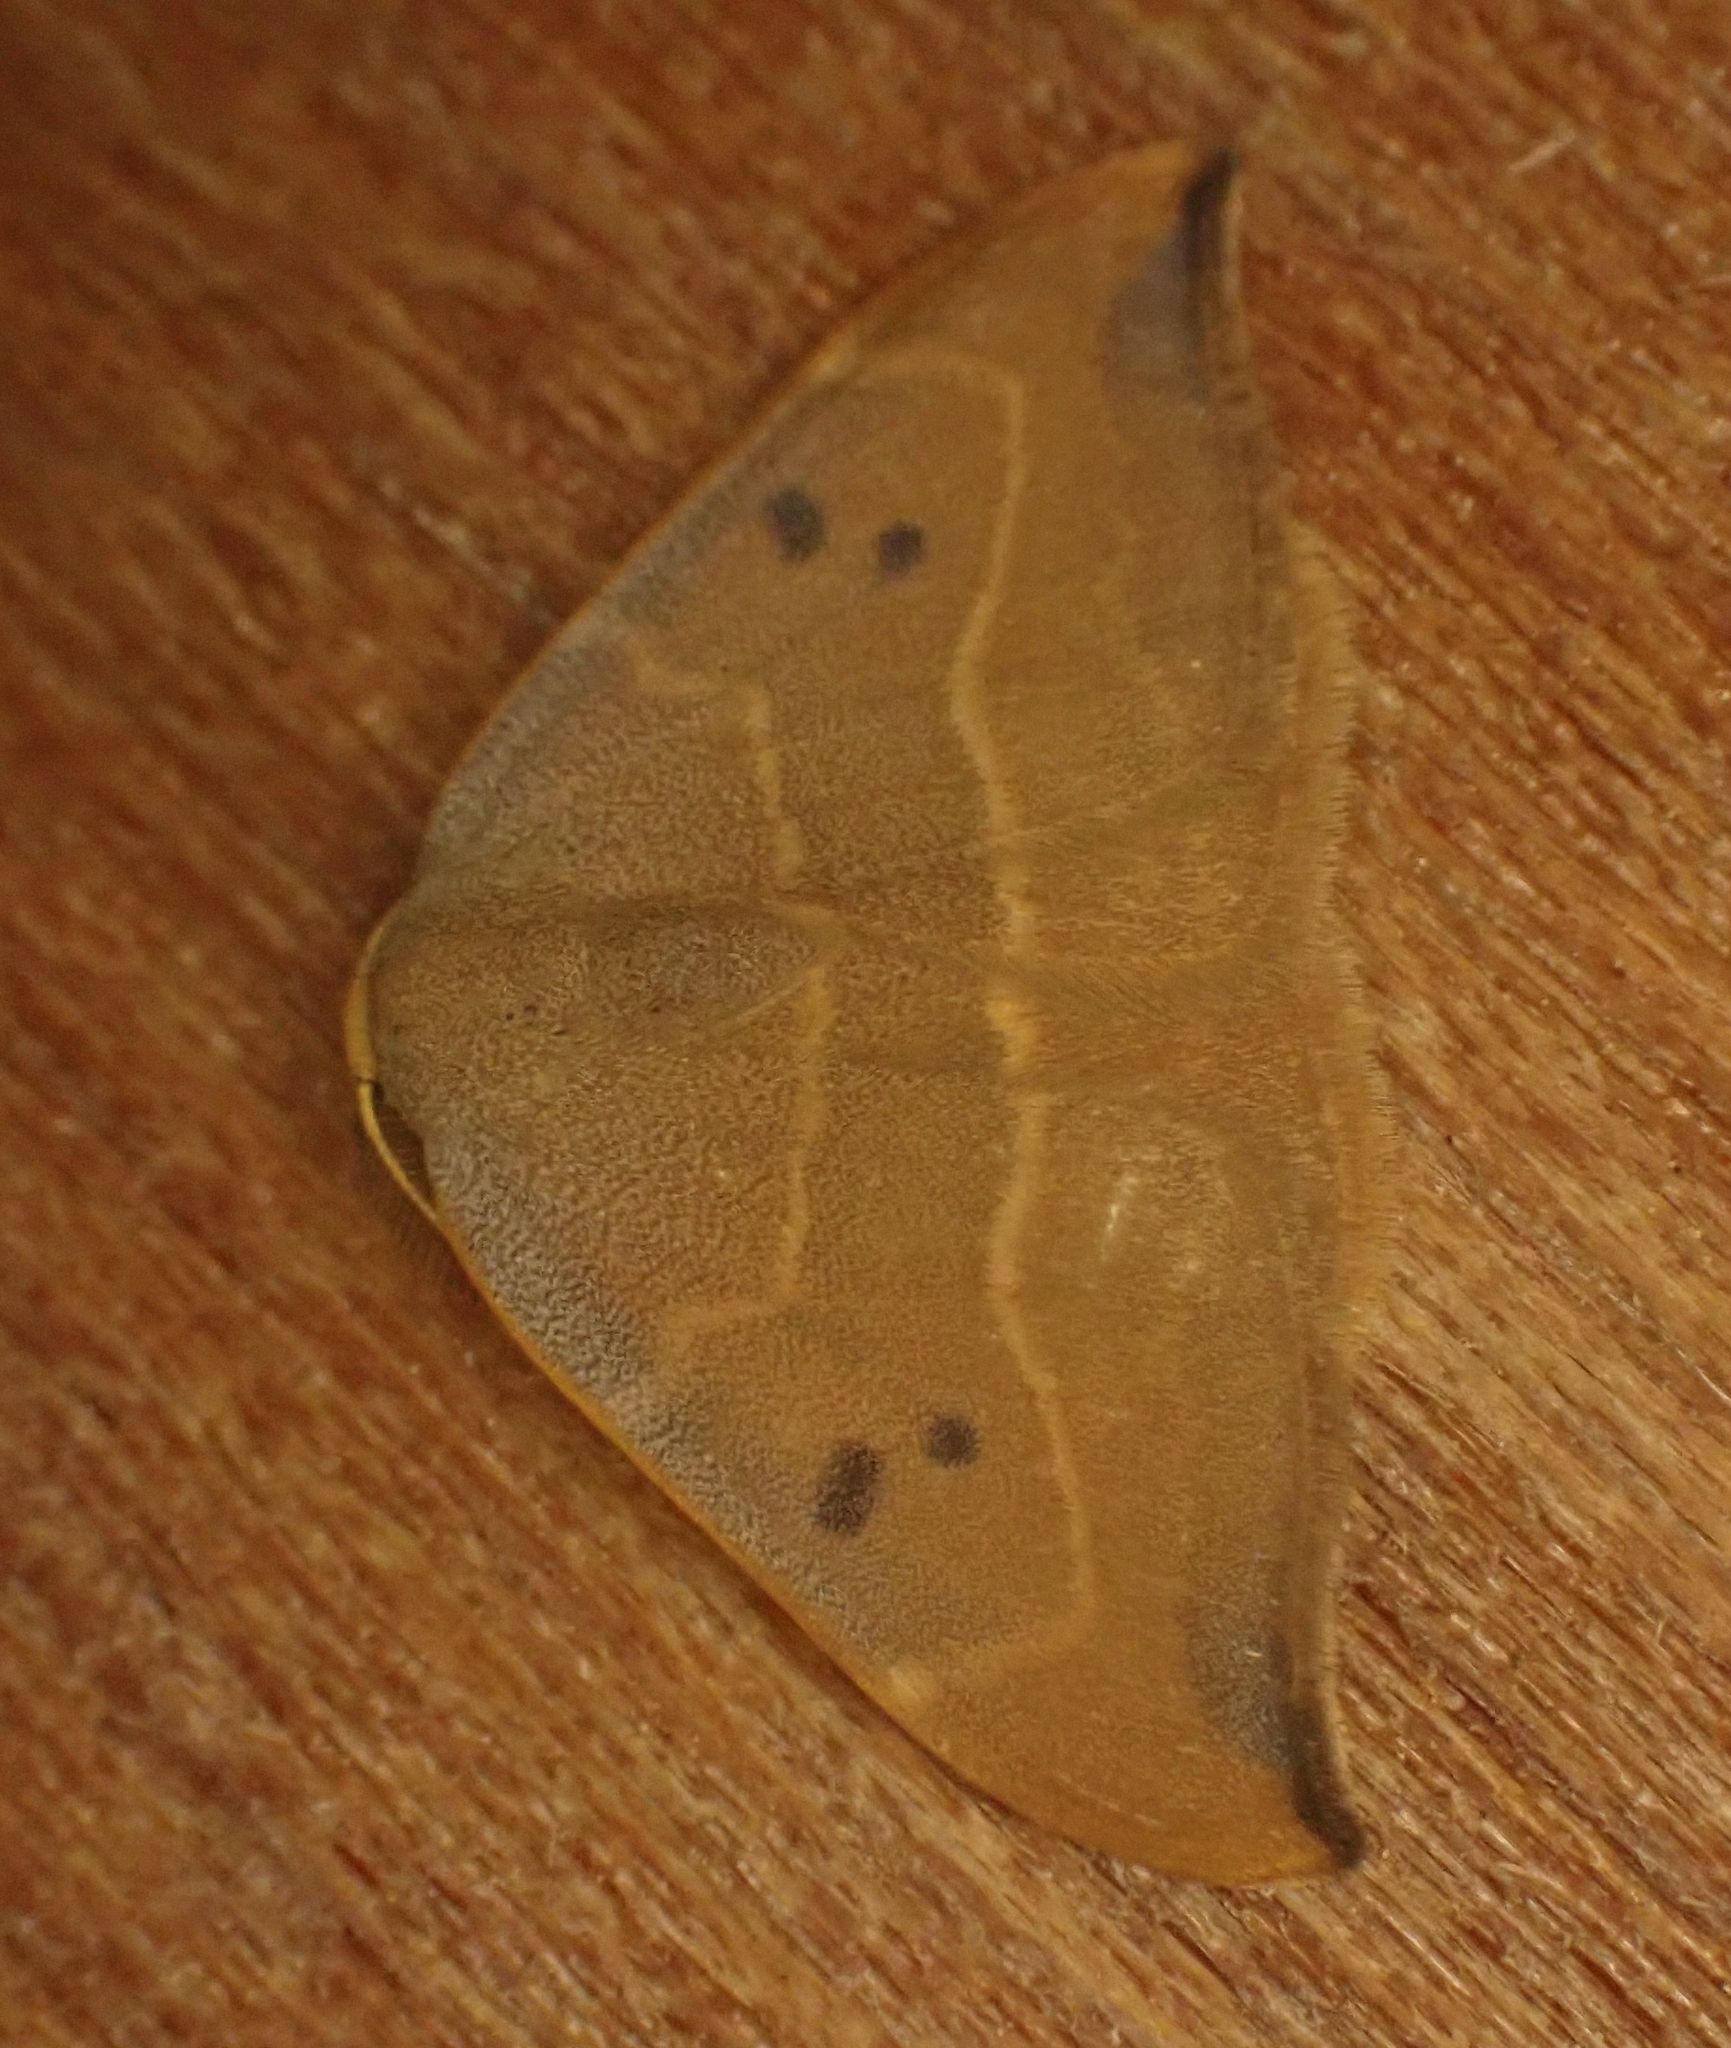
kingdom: Animalia
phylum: Arthropoda
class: Insecta
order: Lepidoptera
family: Drepanidae
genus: Watsonalla
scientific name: Watsonalla binaria
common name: Oak hook-tip
